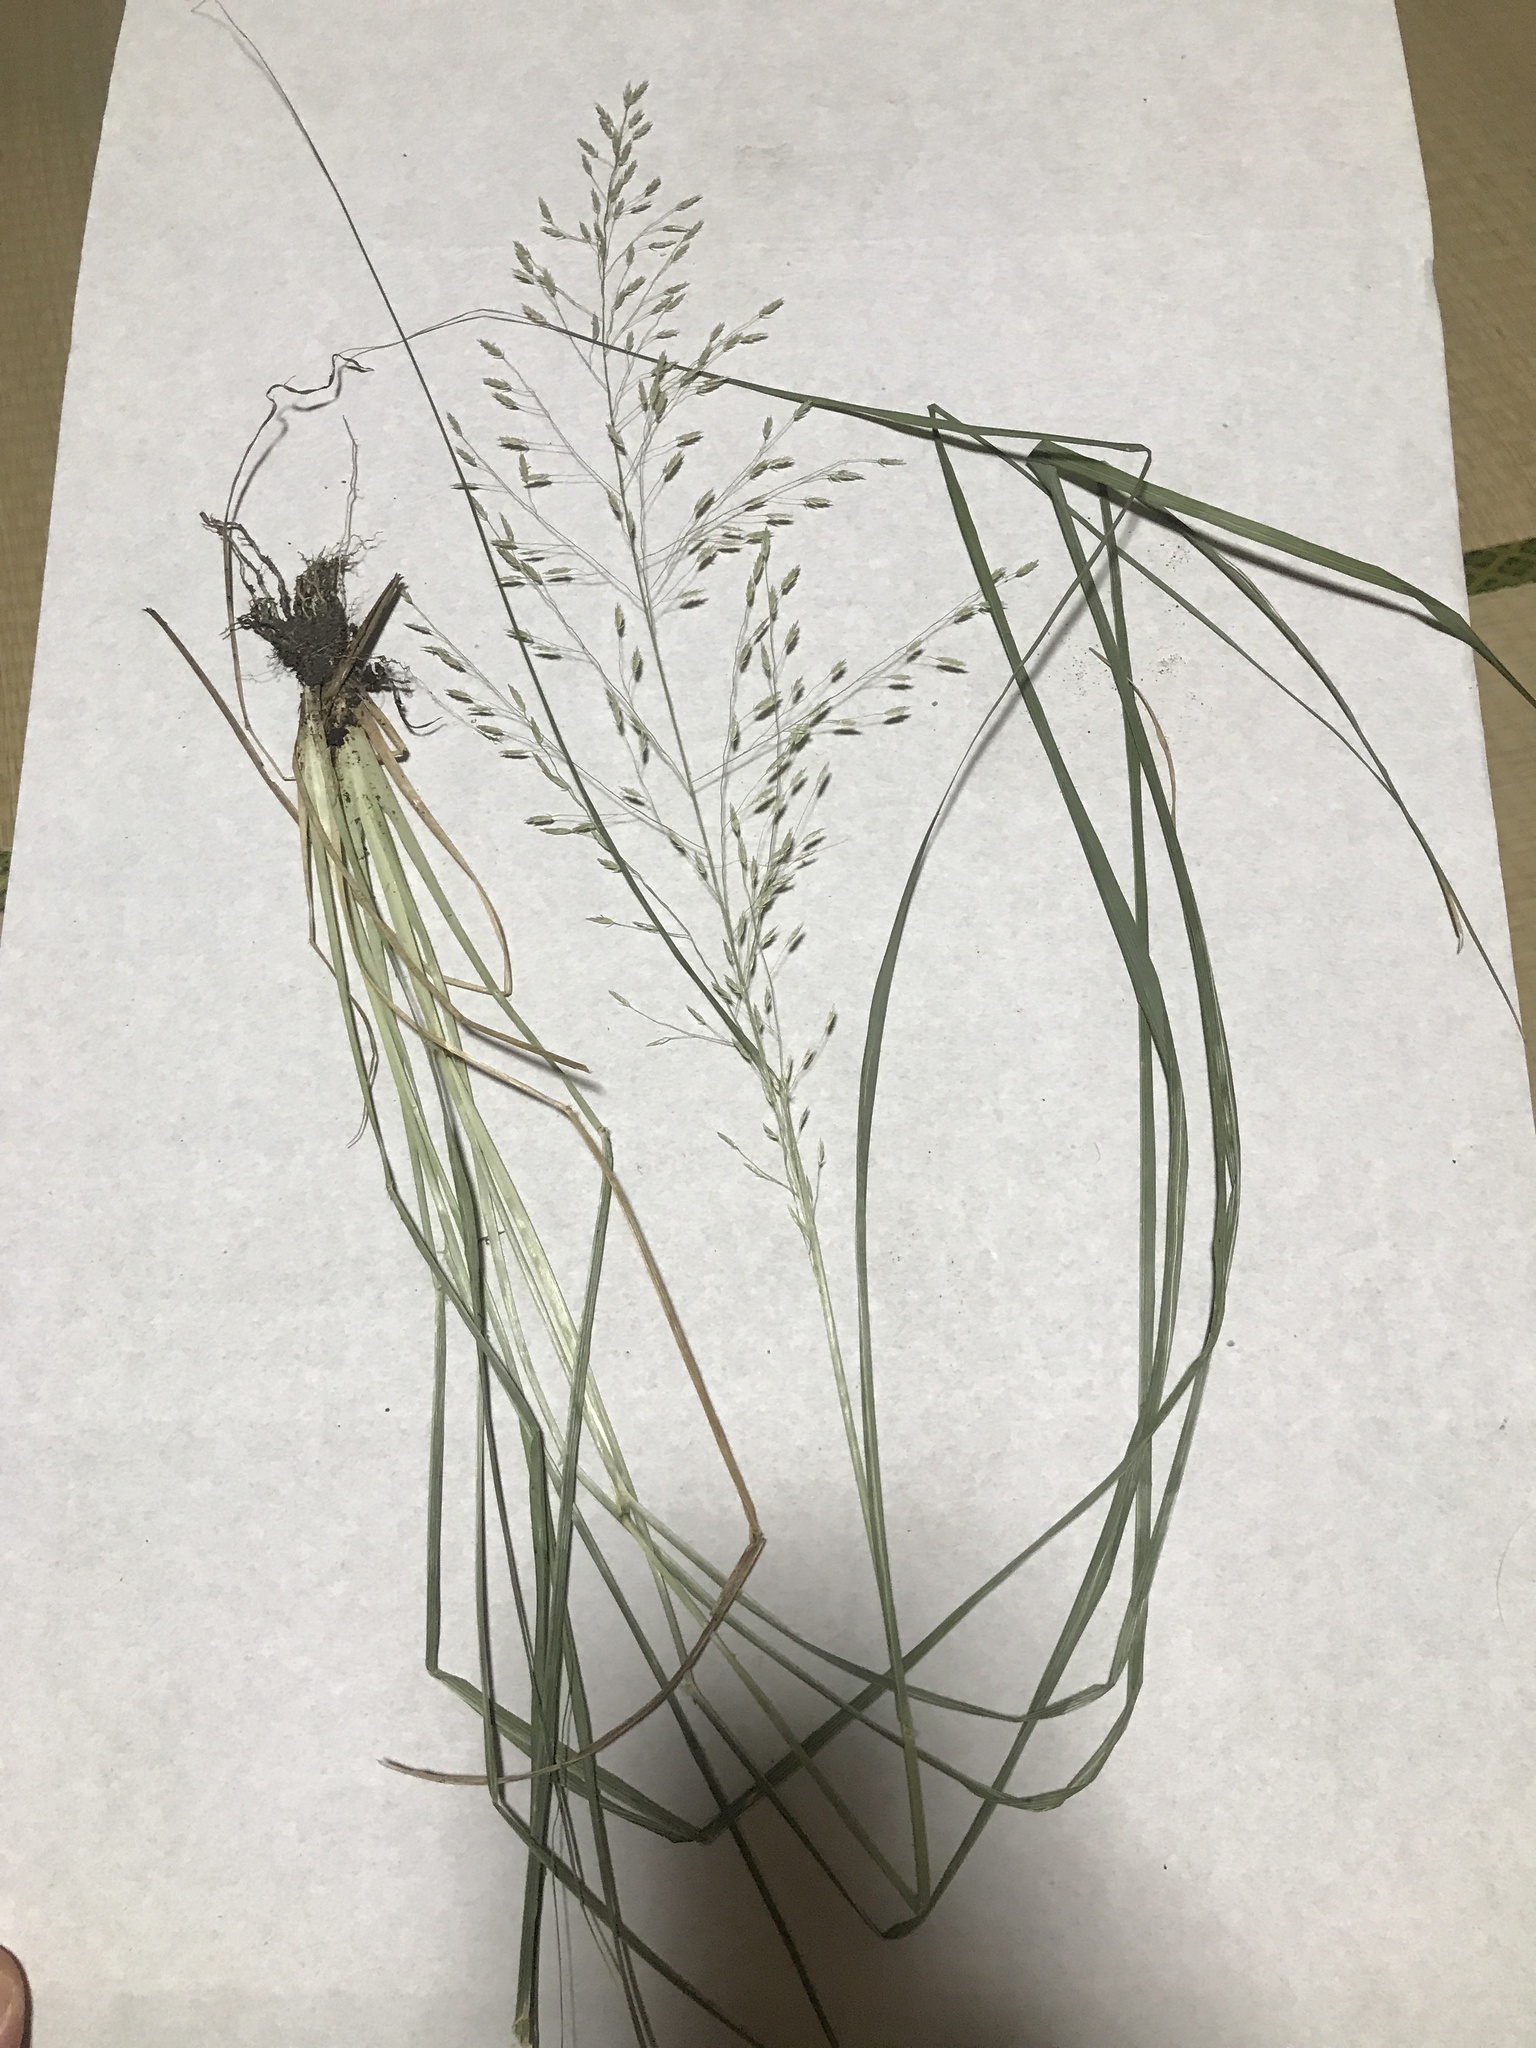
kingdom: Plantae
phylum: Tracheophyta
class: Liliopsida
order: Poales
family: Poaceae
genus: Eragrostis
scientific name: Eragrostis ferruginea
